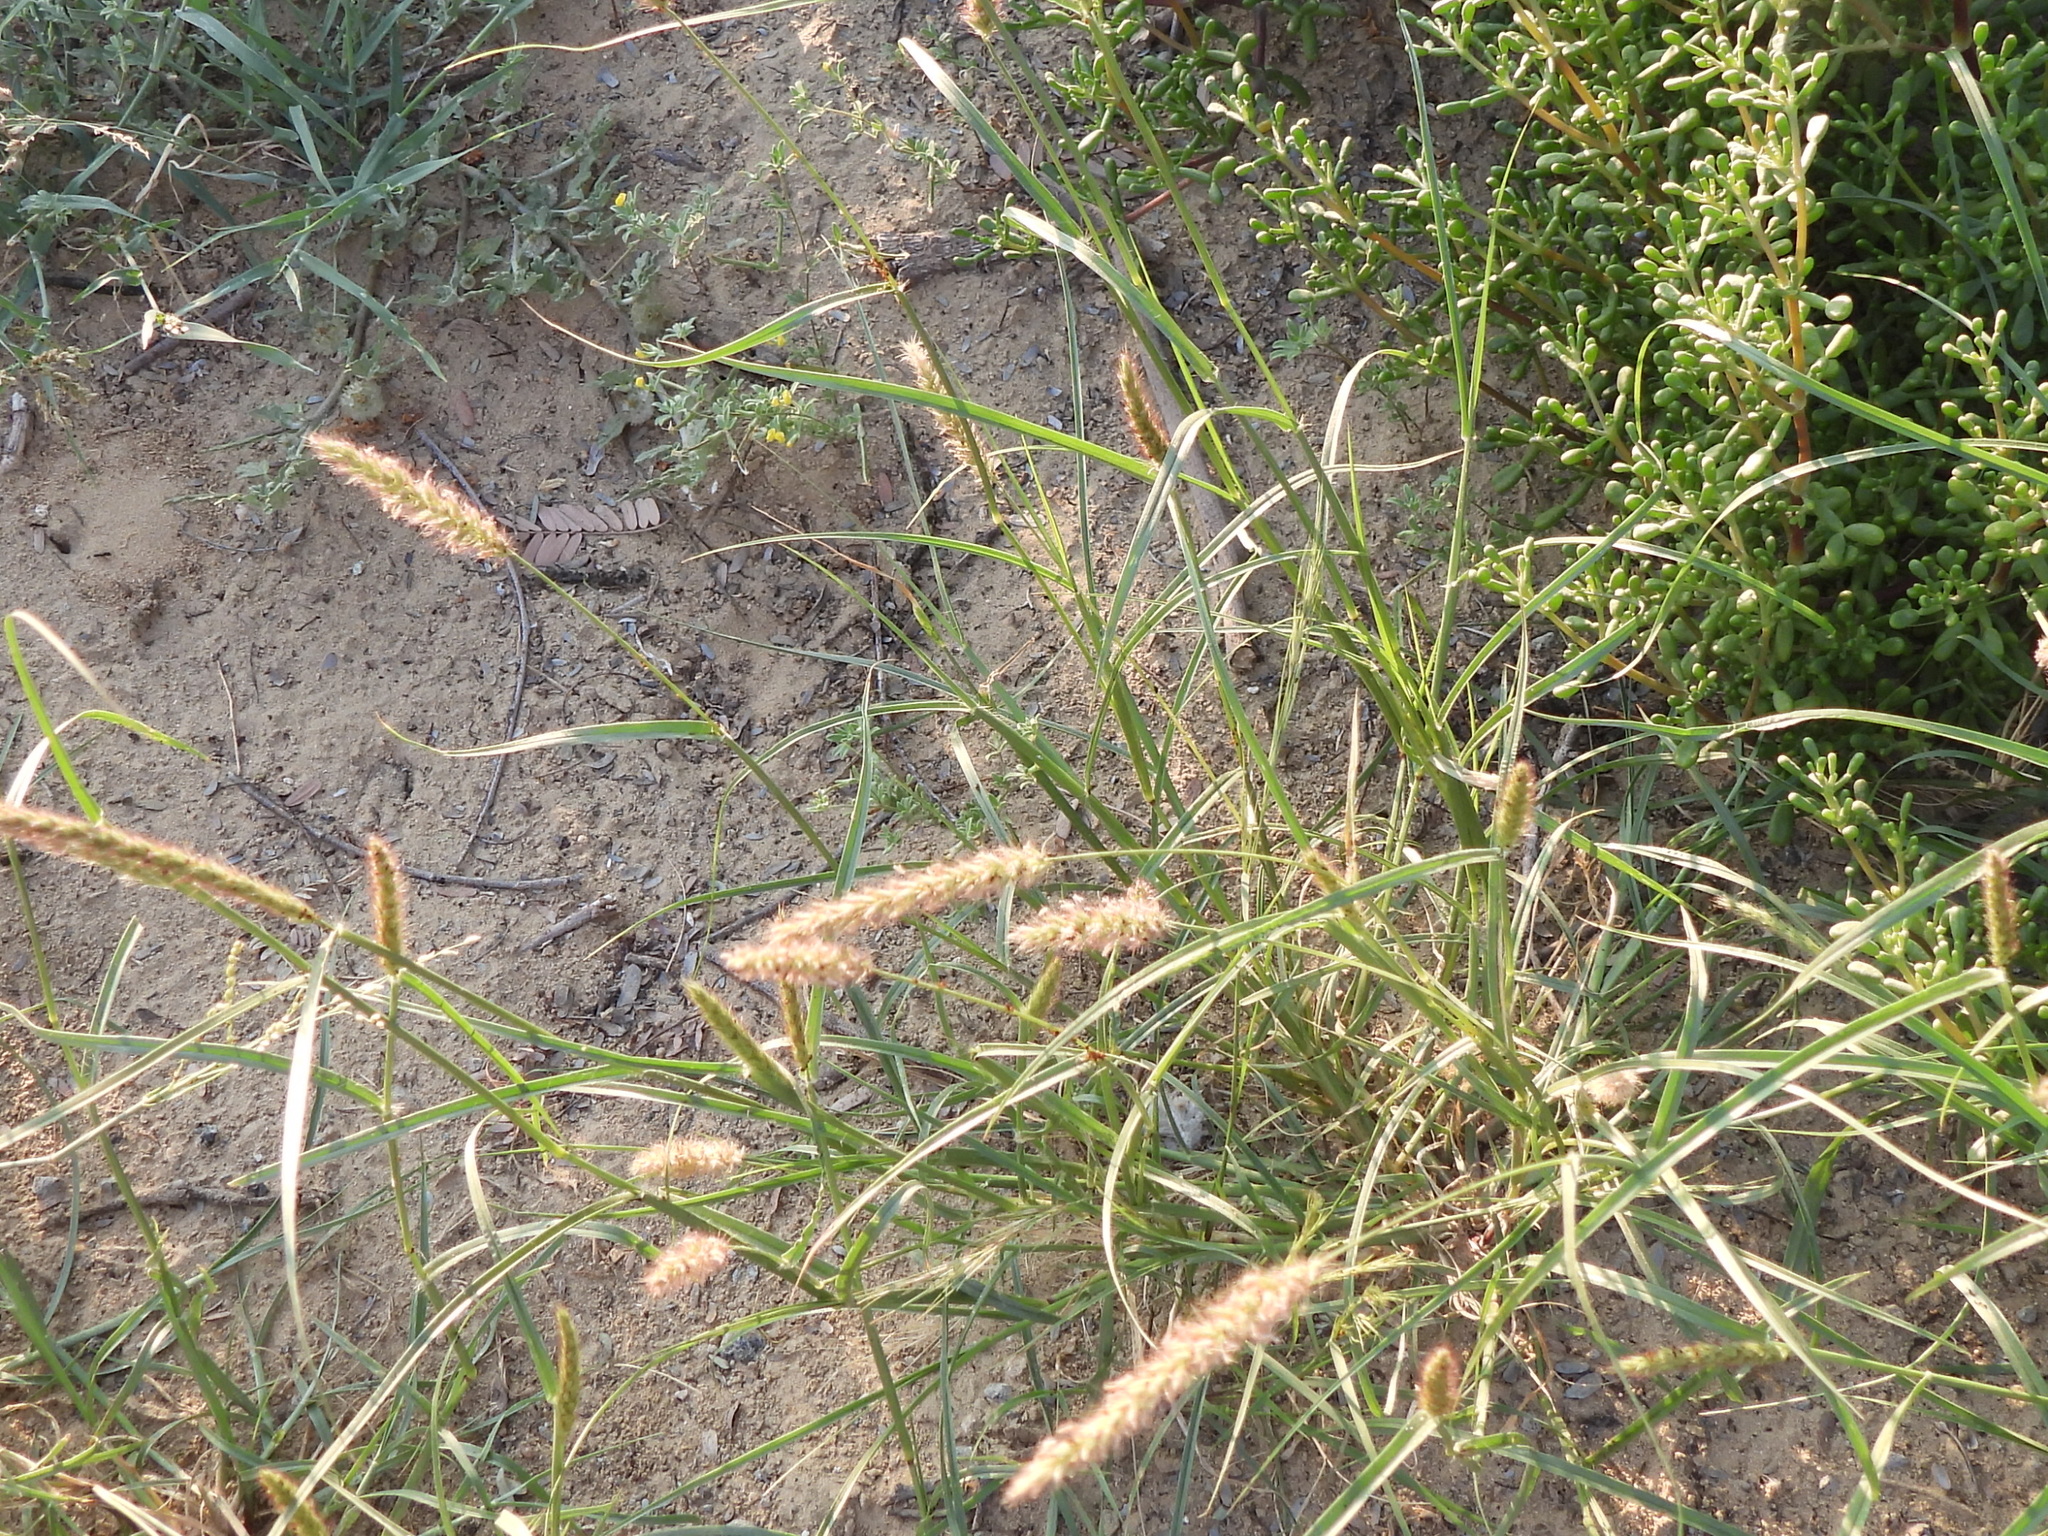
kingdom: Plantae
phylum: Tracheophyta
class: Liliopsida
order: Poales
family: Poaceae
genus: Cenchrus
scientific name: Cenchrus ciliaris
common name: Buffelgrass
